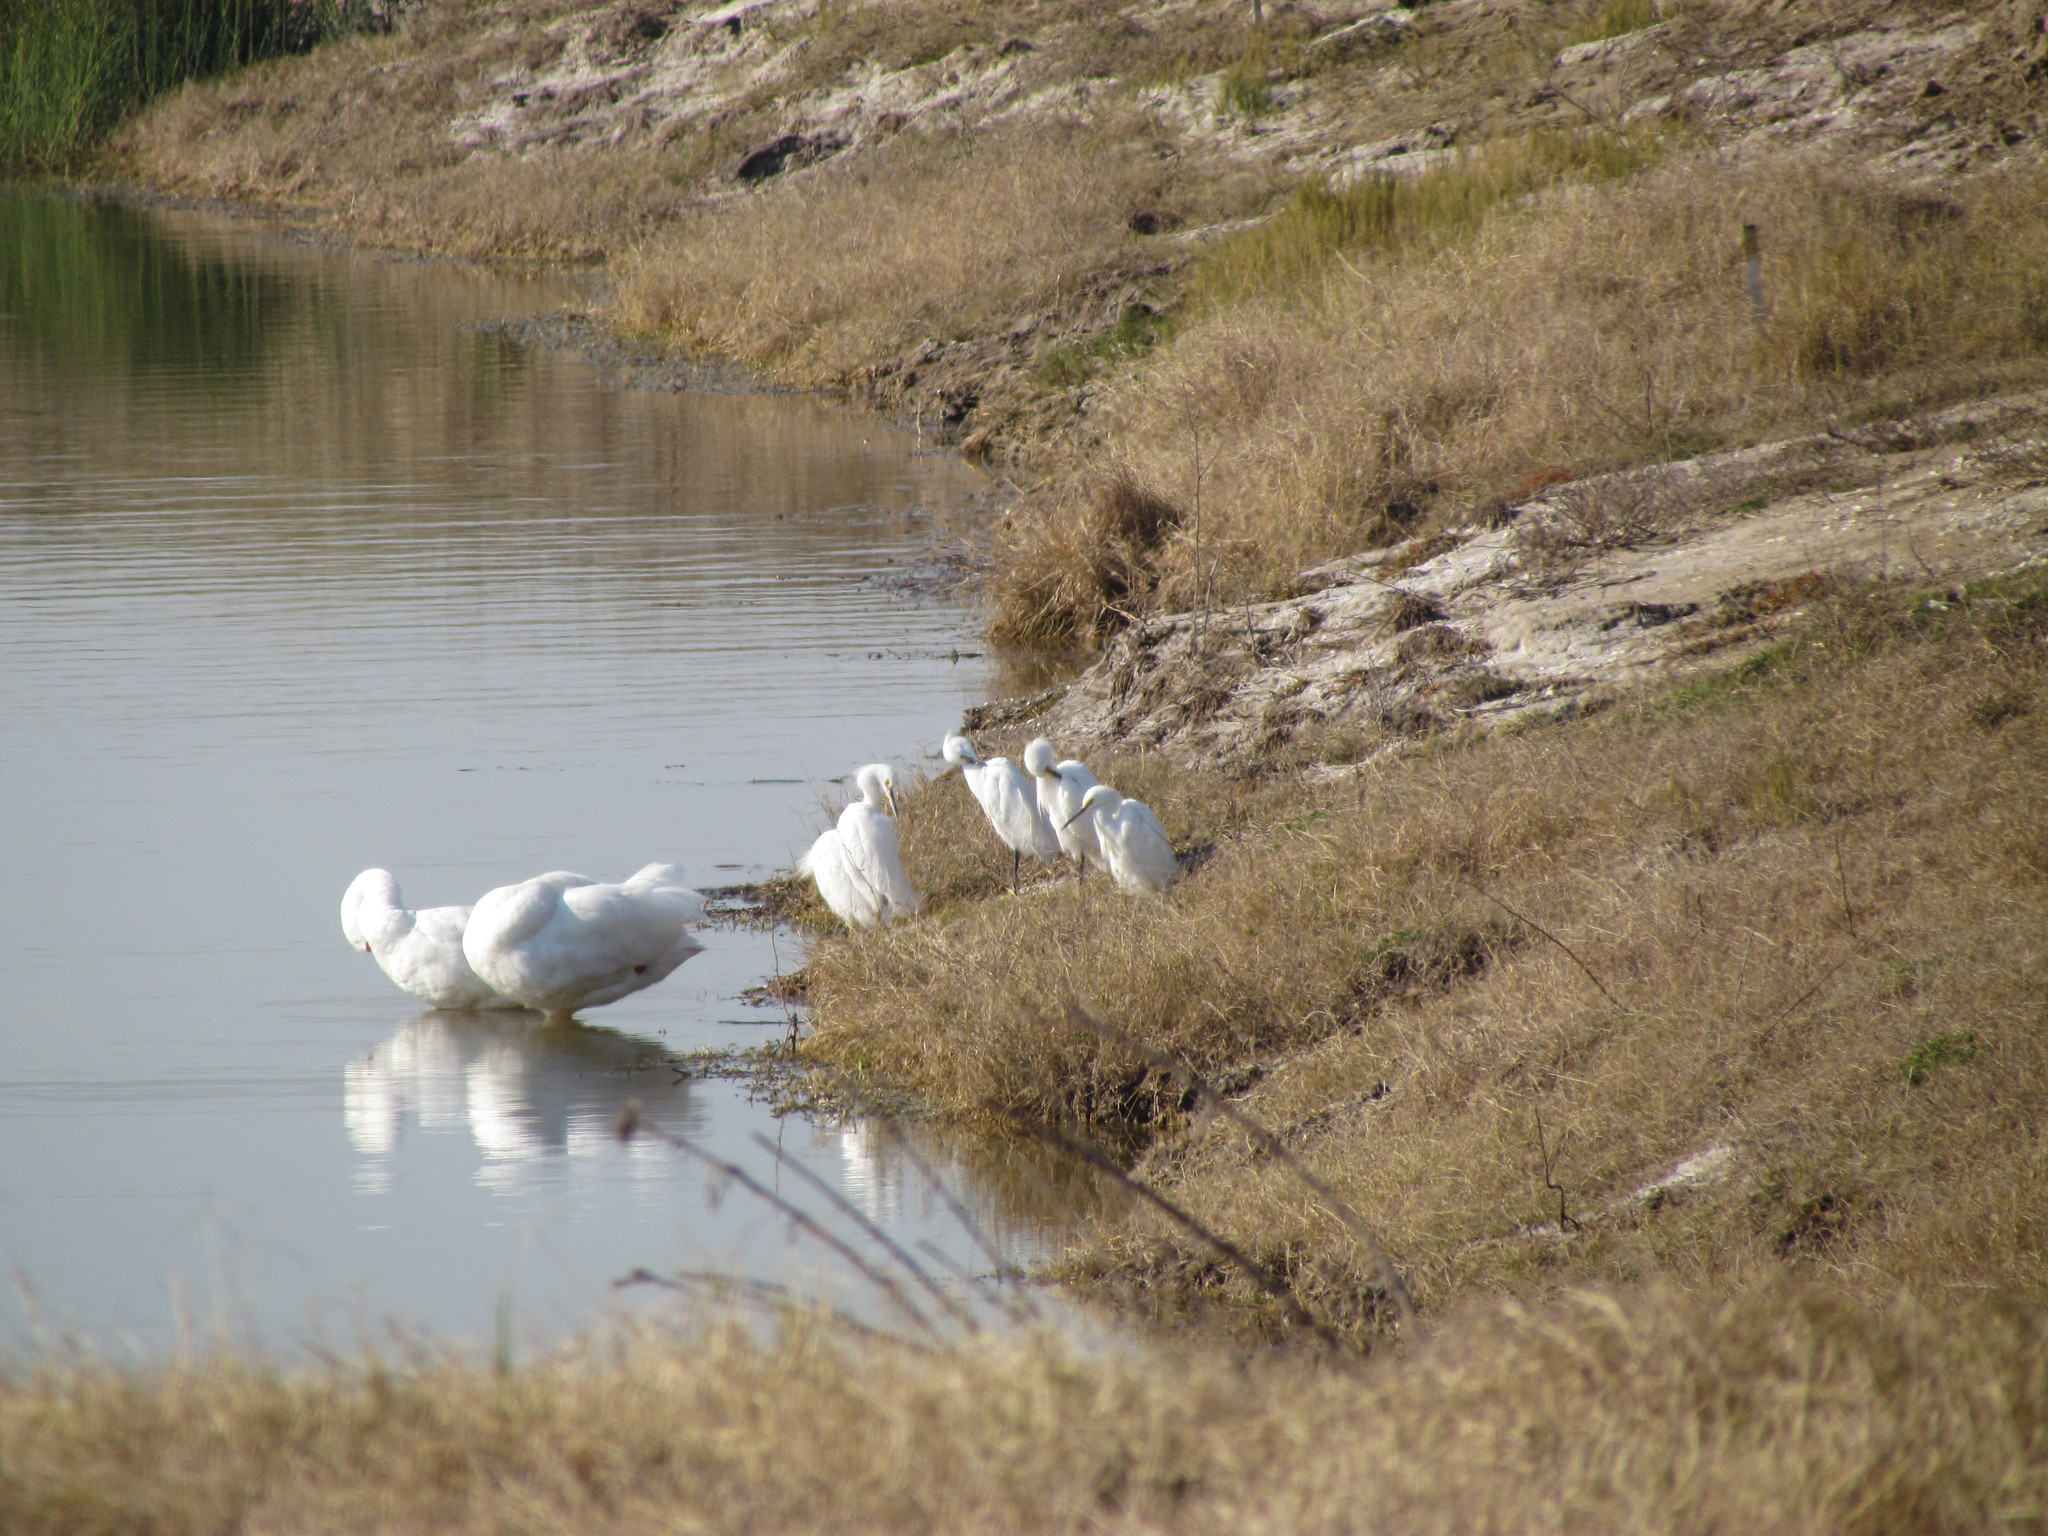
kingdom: Animalia
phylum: Chordata
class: Aves
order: Pelecaniformes
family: Ardeidae
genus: Egretta
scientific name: Egretta thula
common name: Snowy egret
